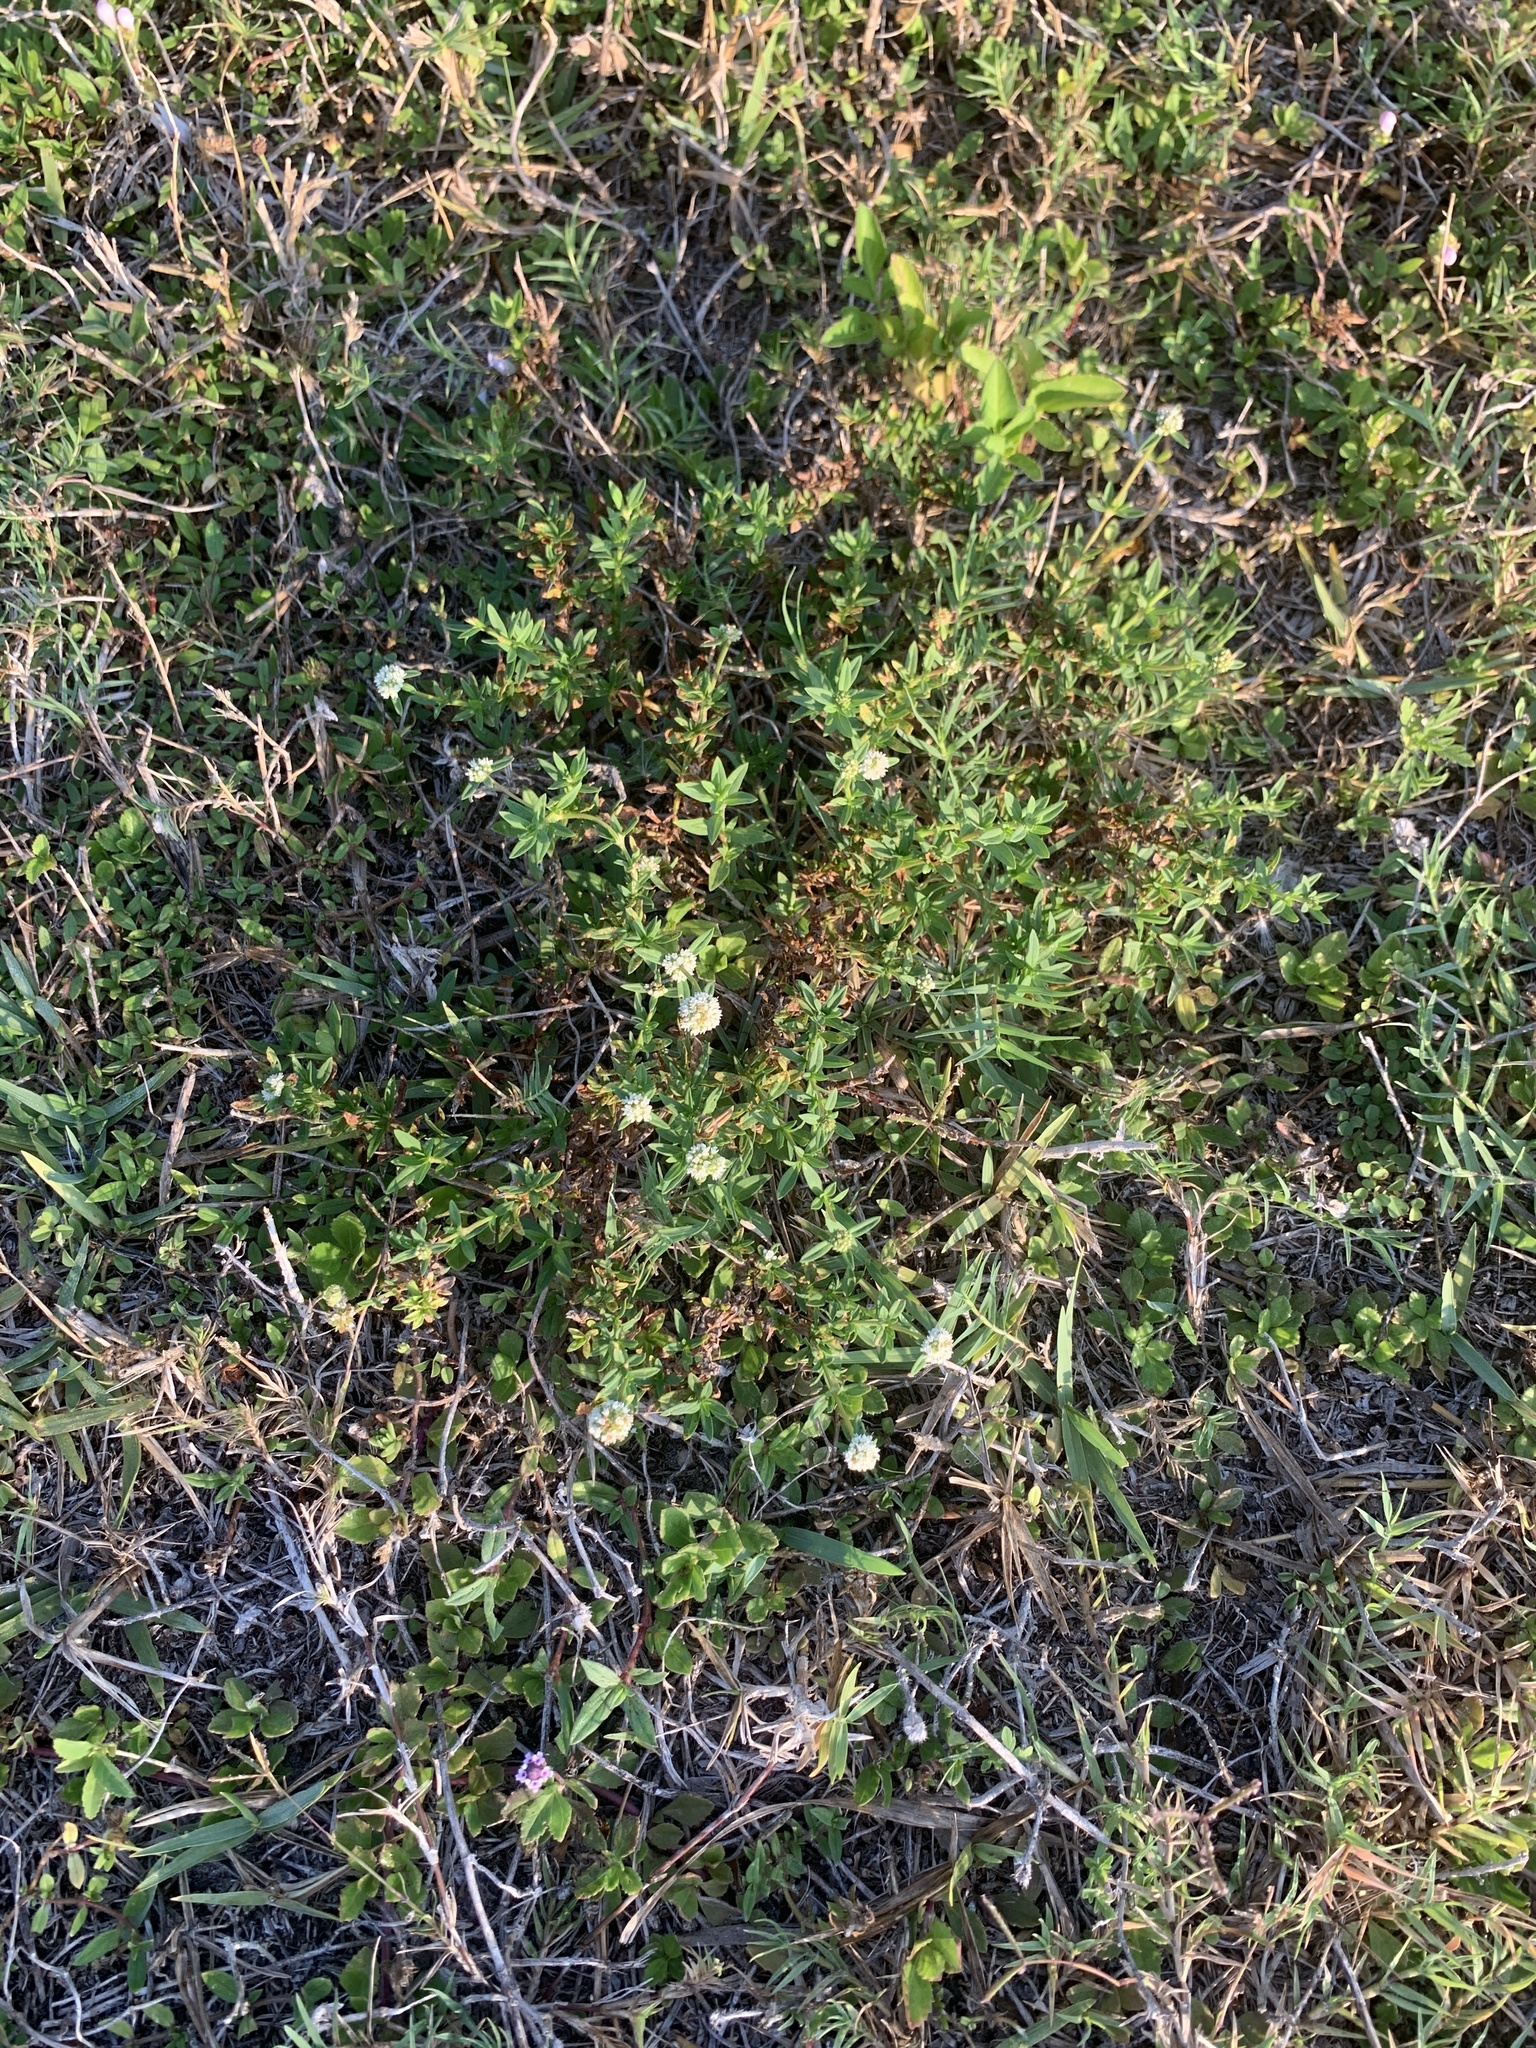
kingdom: Plantae
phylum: Tracheophyta
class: Magnoliopsida
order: Gentianales
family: Rubiaceae
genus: Spermacoce
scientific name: Spermacoce verticillata
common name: Shrubby false buttonweed
